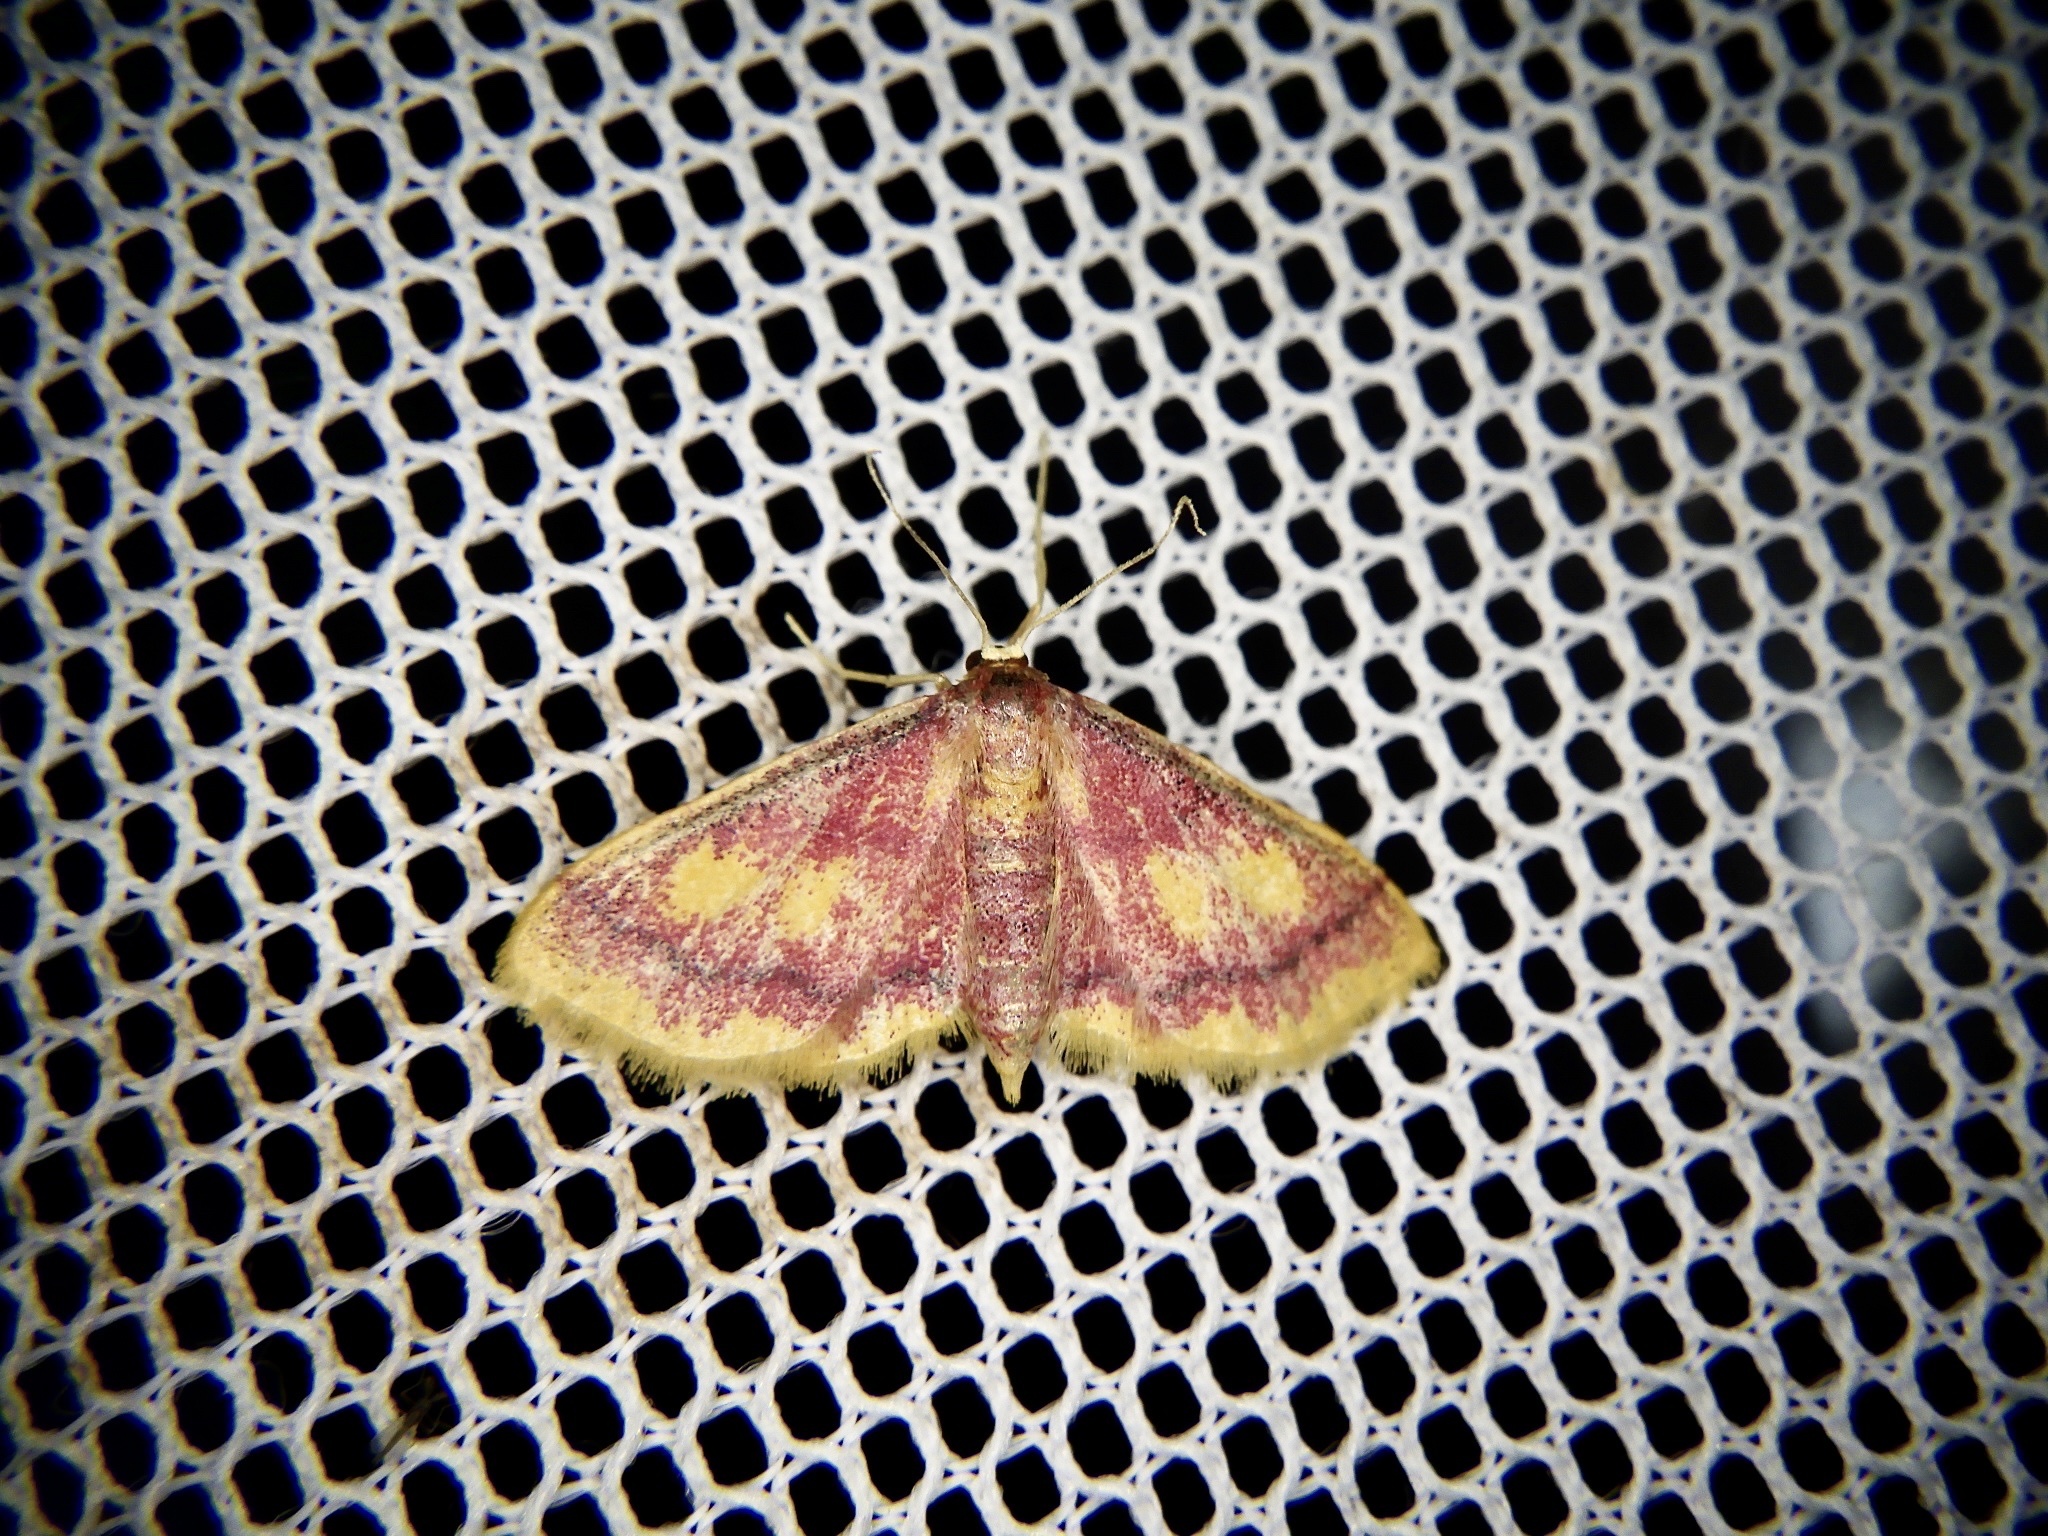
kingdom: Animalia
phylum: Arthropoda
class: Insecta
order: Lepidoptera
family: Geometridae
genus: Idaea
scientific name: Idaea muricata
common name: Purple-bordered gold
